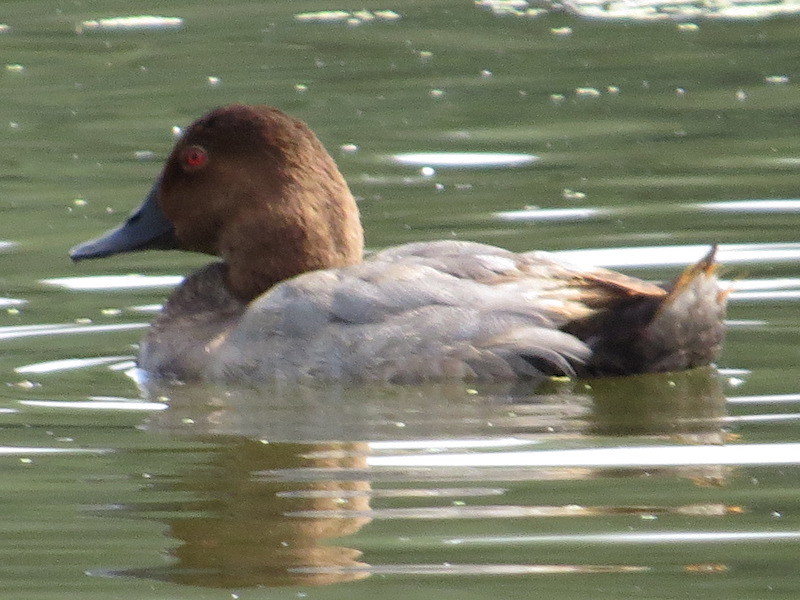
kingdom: Animalia
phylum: Chordata
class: Aves
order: Anseriformes
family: Anatidae
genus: Aythya
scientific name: Aythya ferina
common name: Common pochard
